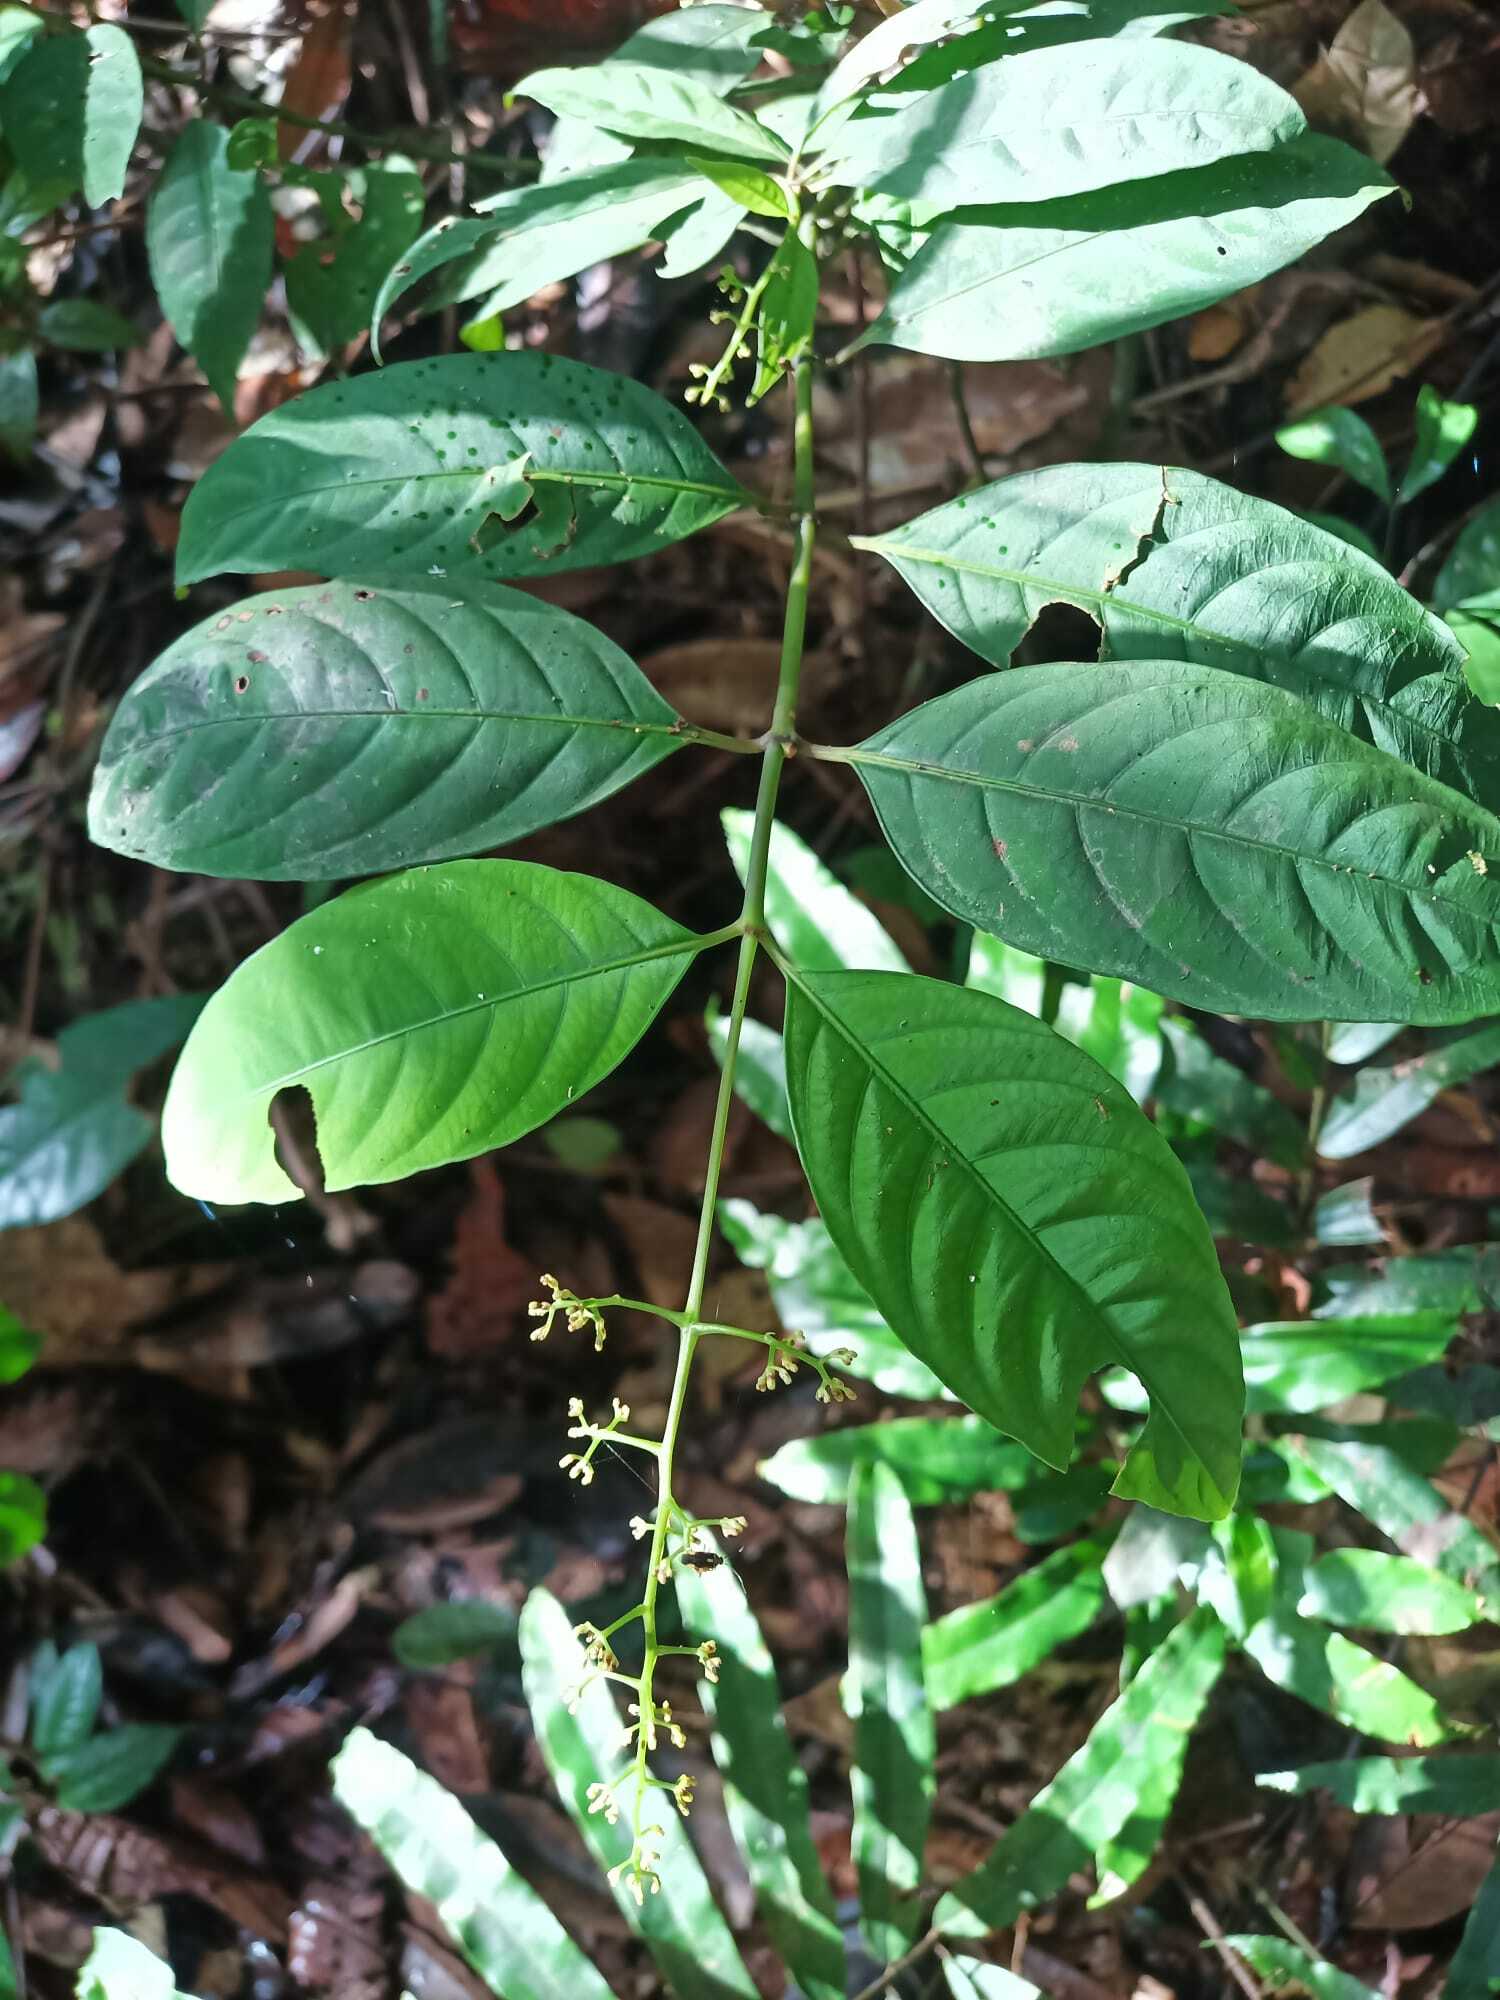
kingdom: Plantae
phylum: Tracheophyta
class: Magnoliopsida
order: Gentianales
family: Rubiaceae
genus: Palicourea
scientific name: Palicourea paniculata
